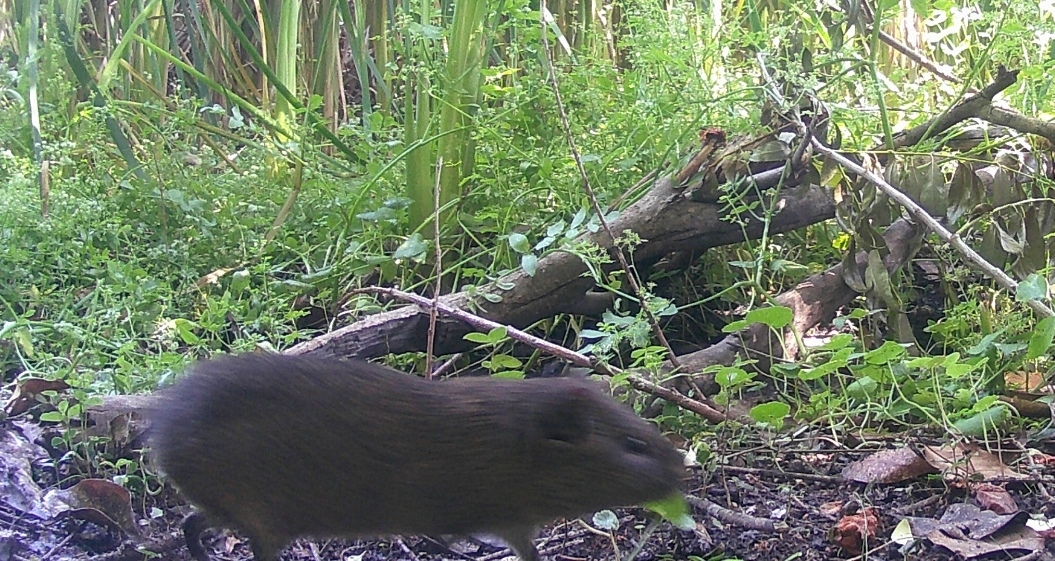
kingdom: Animalia
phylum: Chordata
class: Mammalia
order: Rodentia
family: Caviidae
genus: Cavia
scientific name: Cavia aperea
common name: Brazilian guinea pig
